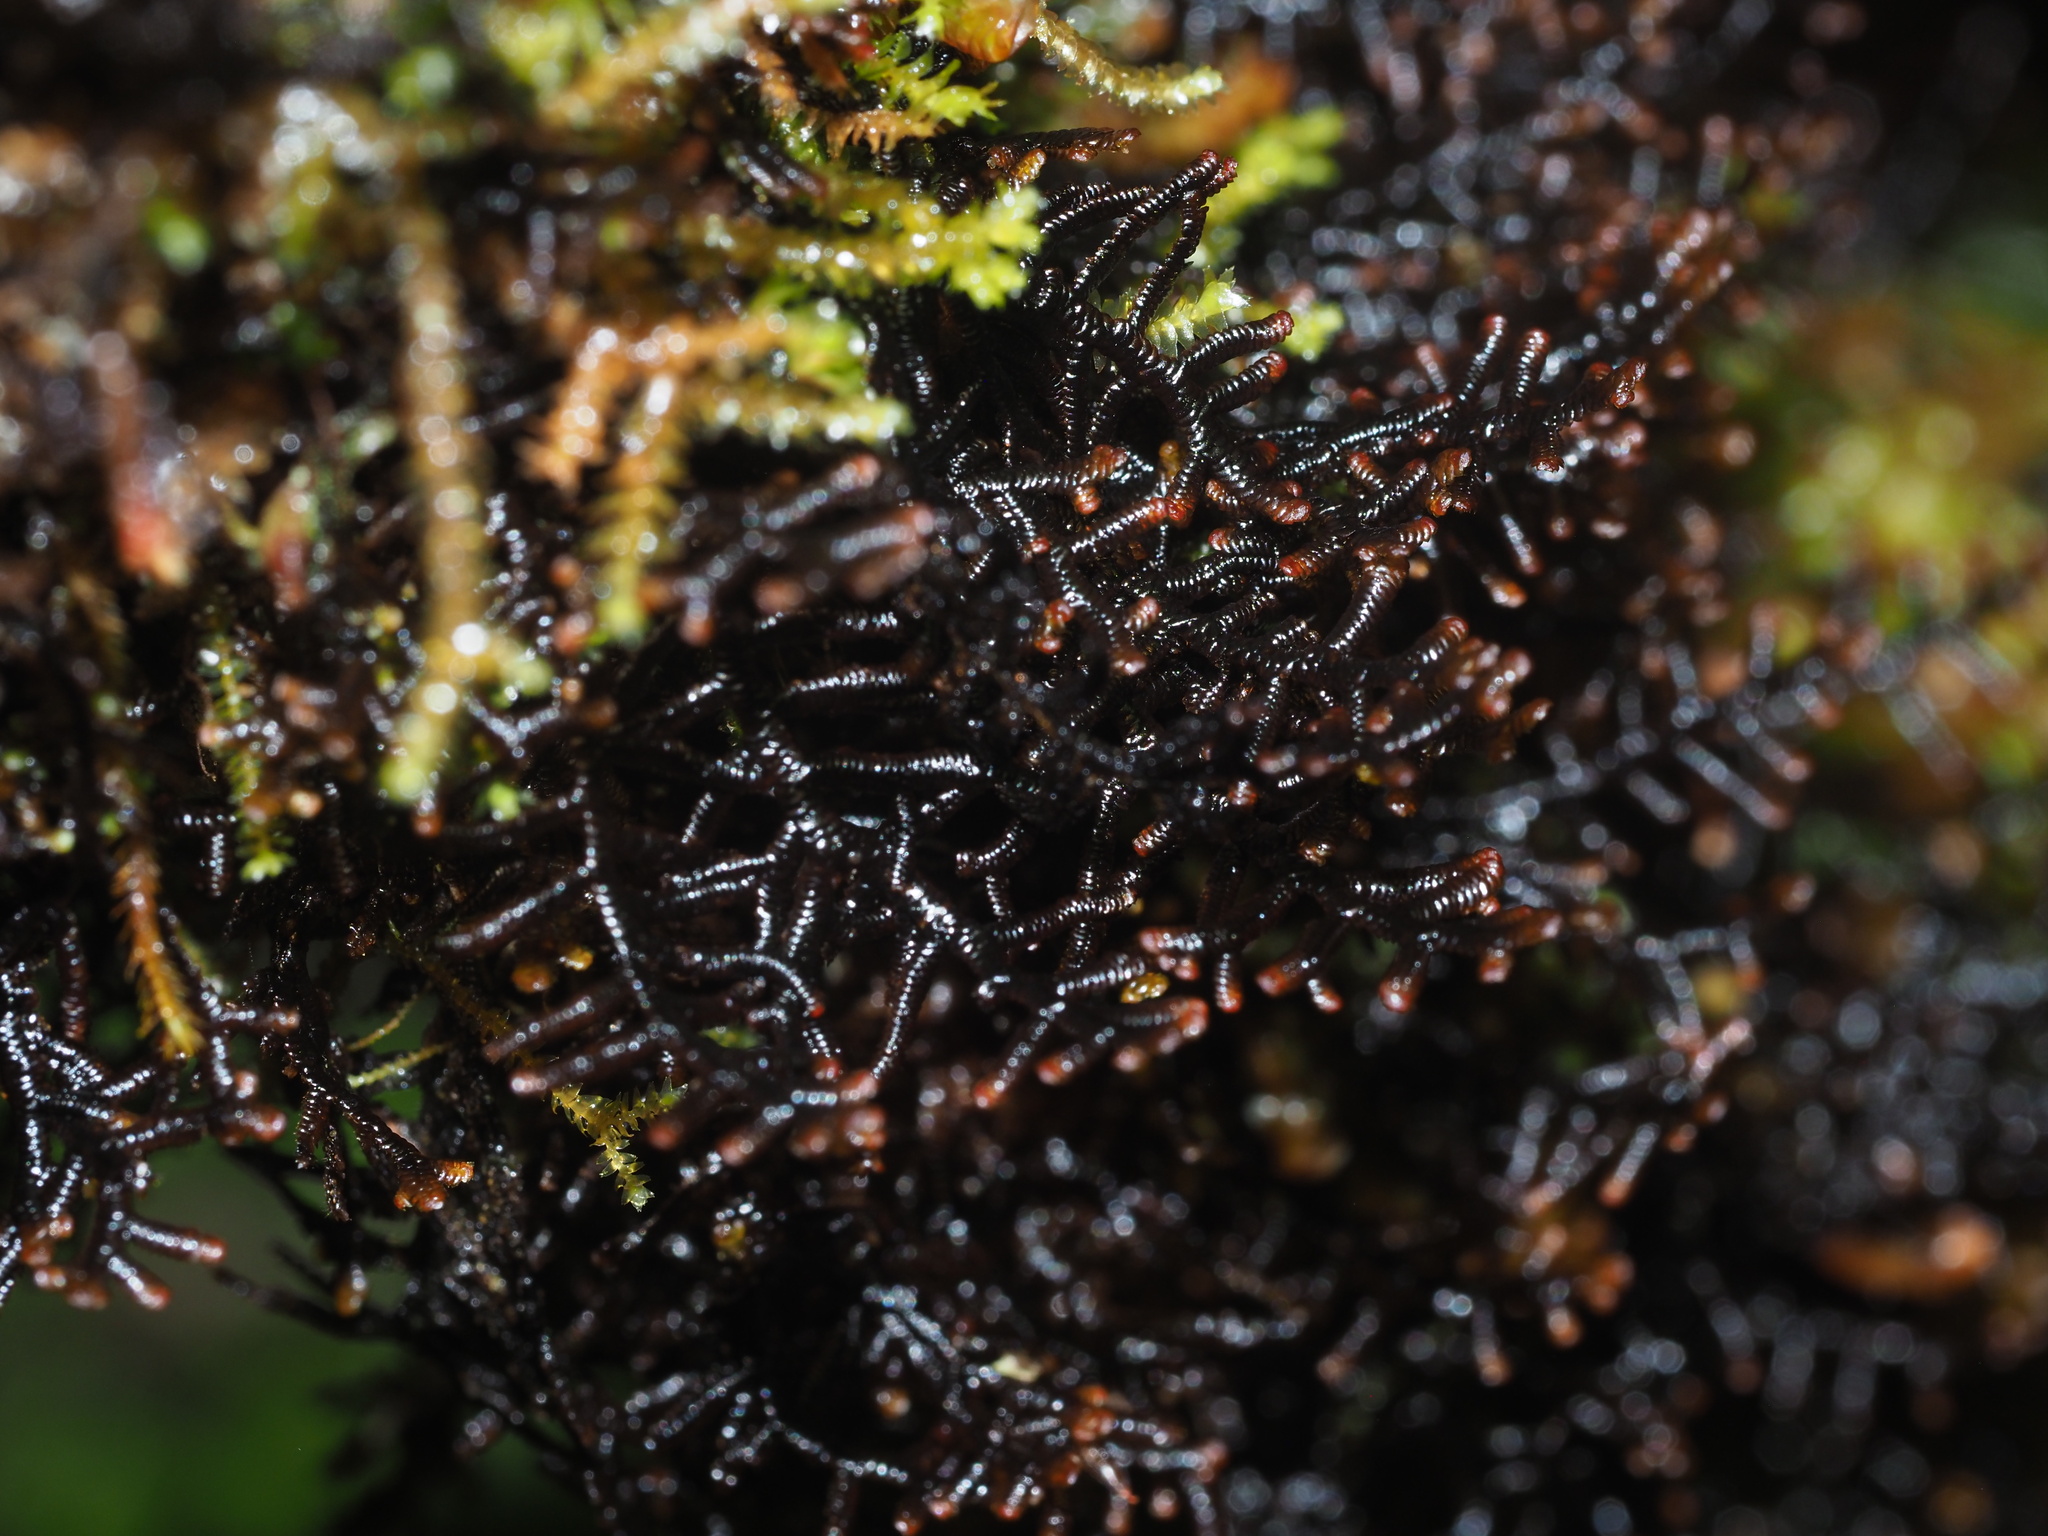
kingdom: Plantae
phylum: Marchantiophyta
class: Jungermanniopsida
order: Porellales
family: Frullaniaceae
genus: Frullania
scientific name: Frullania apiculata
